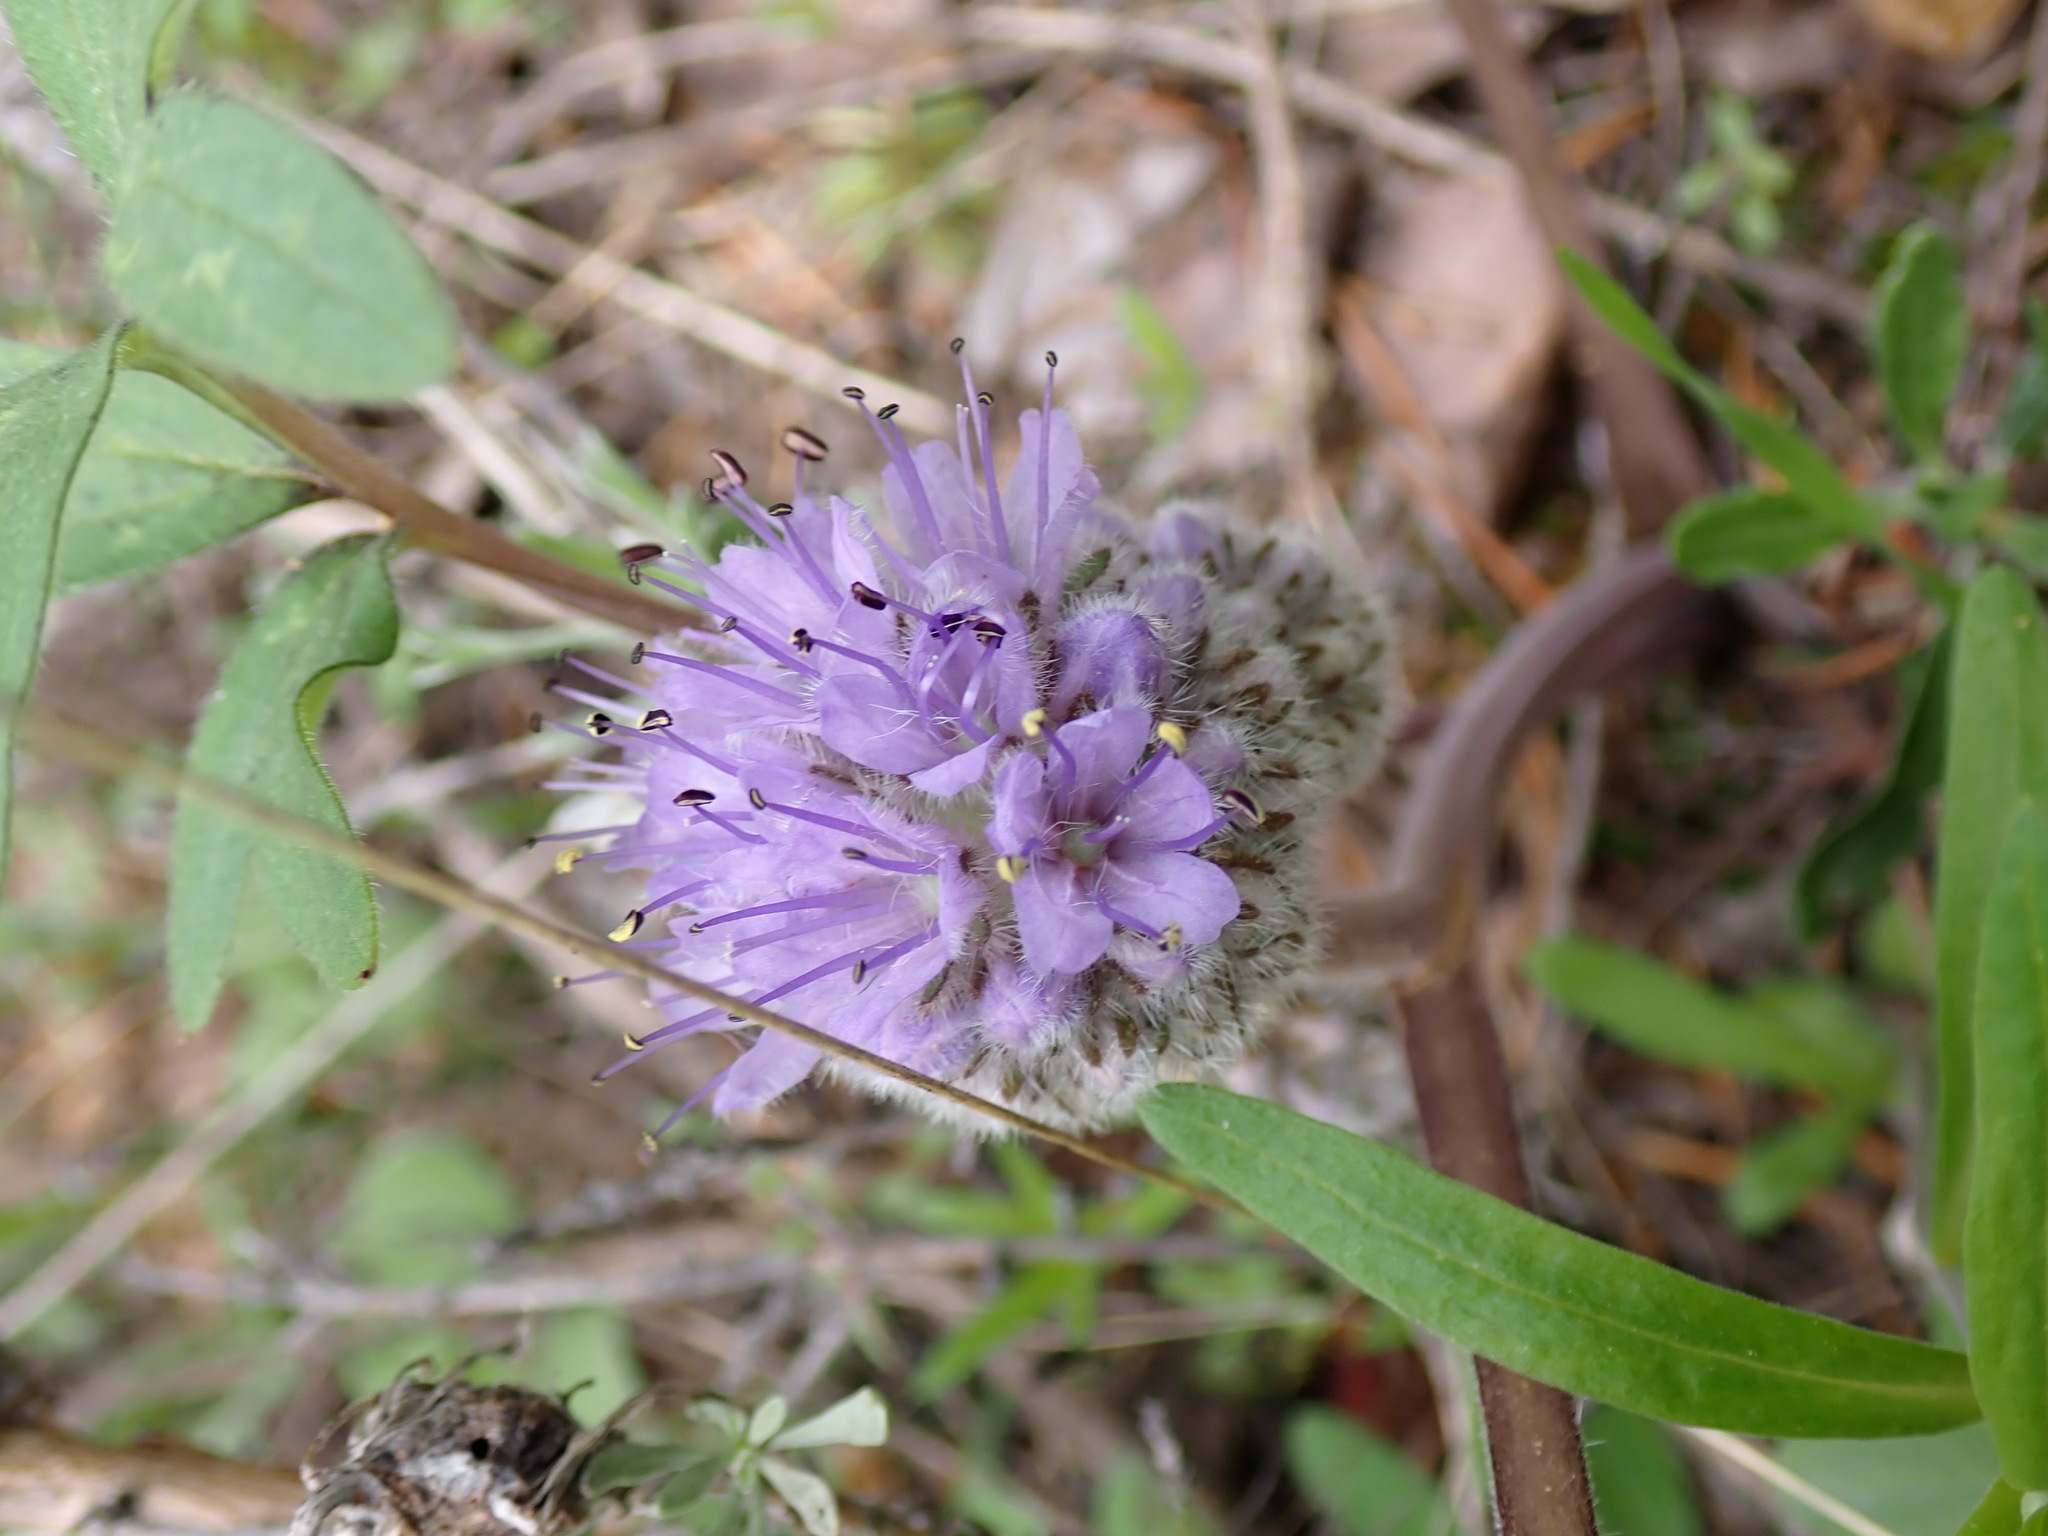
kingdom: Plantae
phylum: Tracheophyta
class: Magnoliopsida
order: Boraginales
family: Hydrophyllaceae
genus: Hydrophyllum
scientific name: Hydrophyllum capitatum
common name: Woollen-breeches
